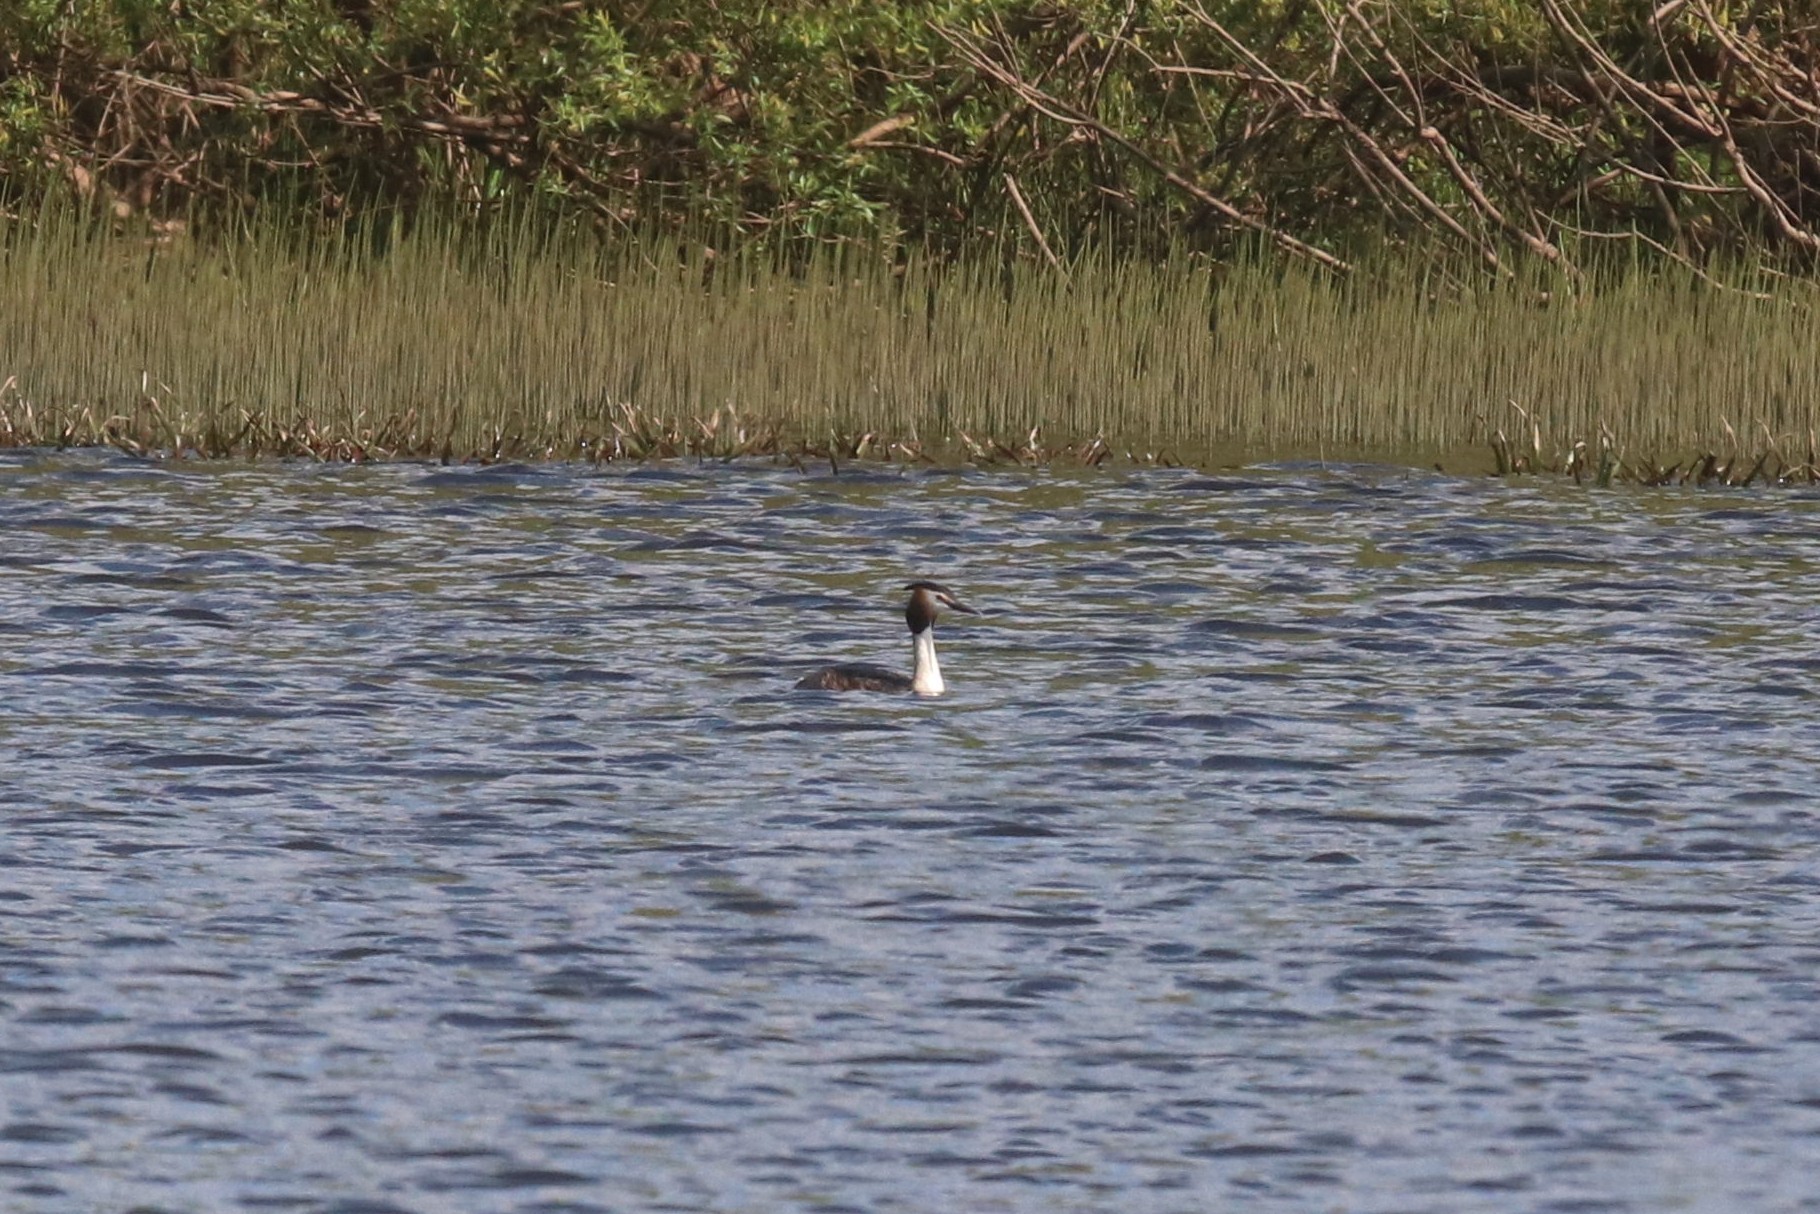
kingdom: Animalia
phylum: Chordata
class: Aves
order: Podicipediformes
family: Podicipedidae
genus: Podiceps
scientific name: Podiceps cristatus
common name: Great crested grebe
